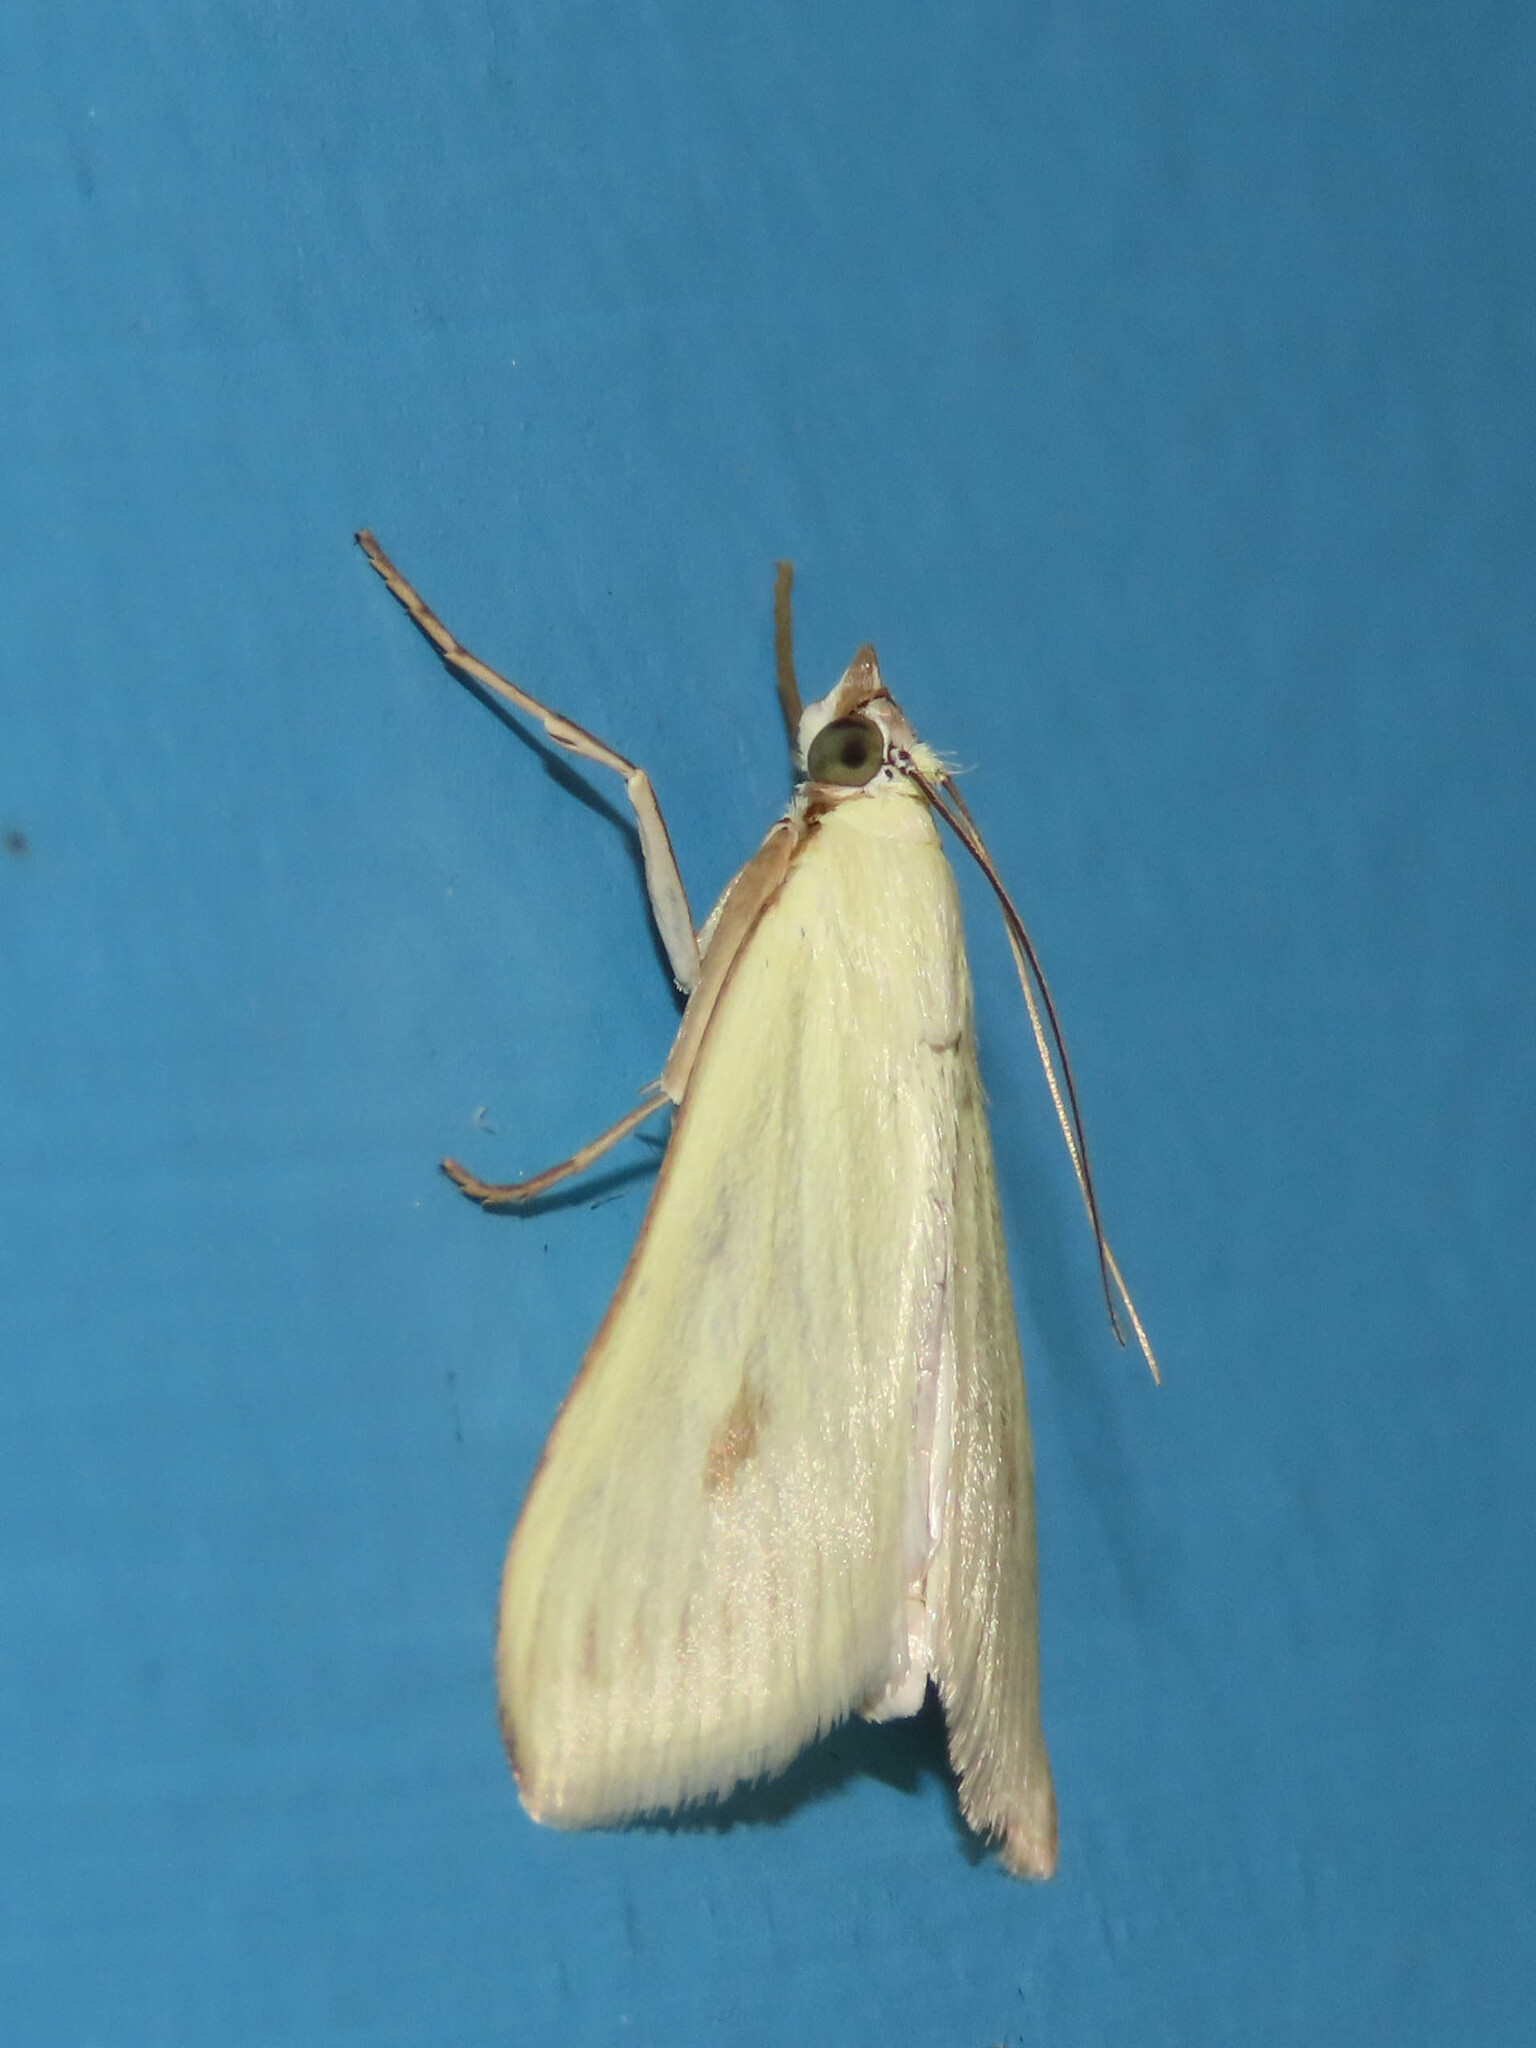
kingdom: Animalia
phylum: Arthropoda
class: Insecta
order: Lepidoptera
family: Crambidae
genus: Sitochroa
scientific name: Sitochroa palealis
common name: Greenish-yellow sitochroa moth
